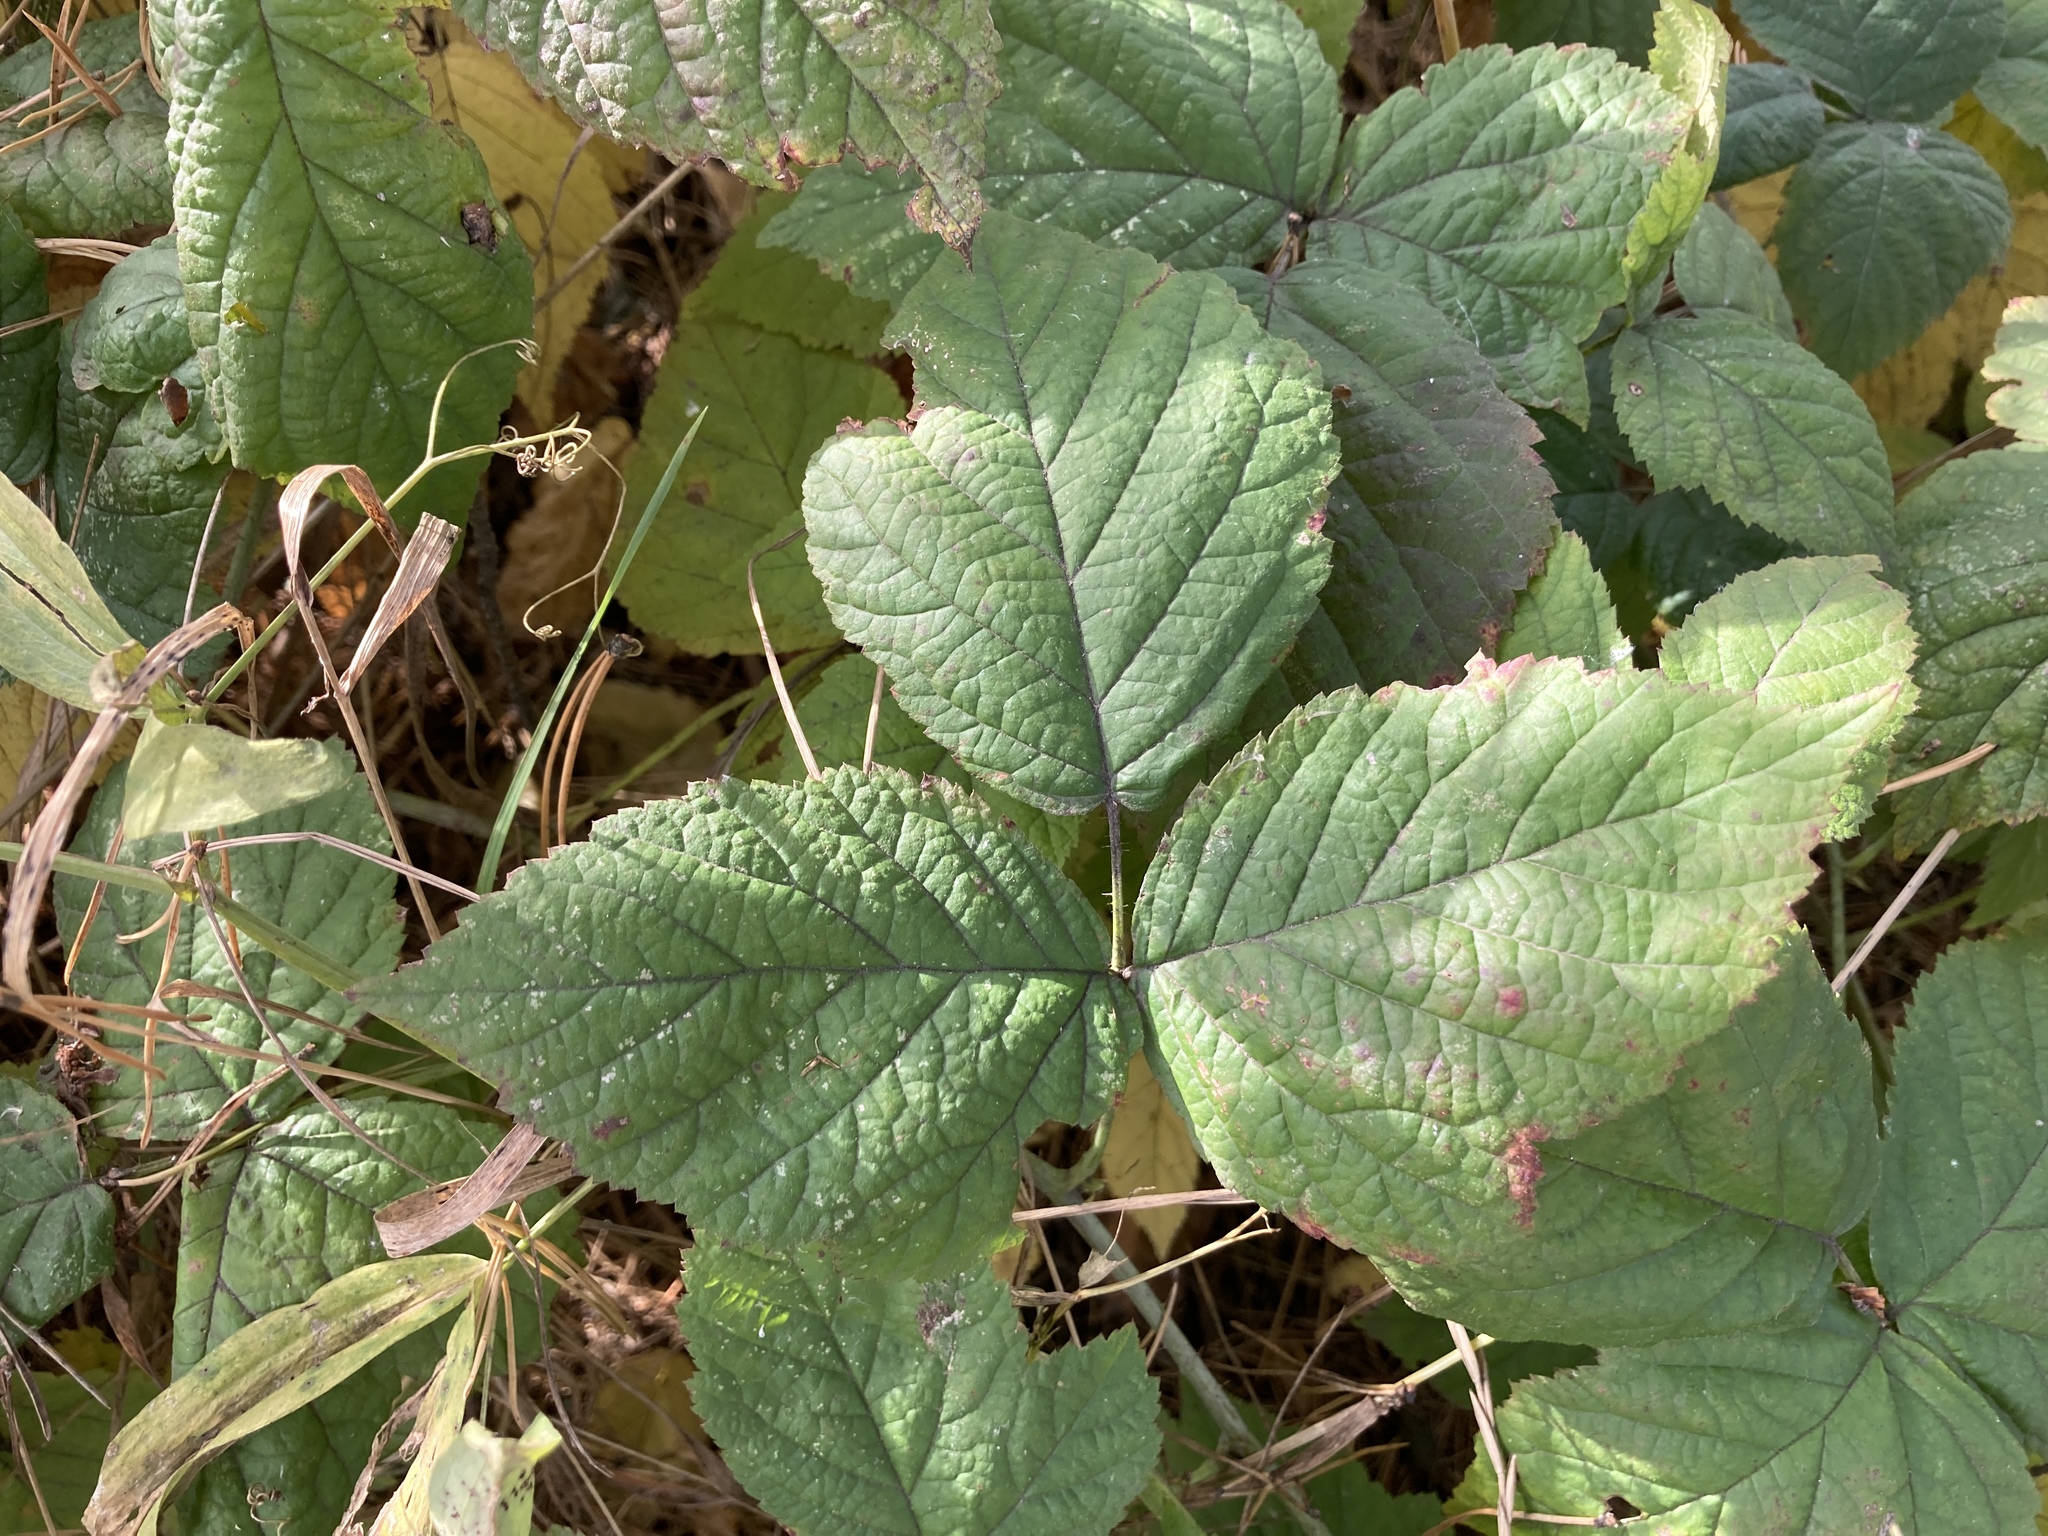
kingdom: Plantae
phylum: Tracheophyta
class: Magnoliopsida
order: Rosales
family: Rosaceae
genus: Rubus
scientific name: Rubus caesius
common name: Dewberry
